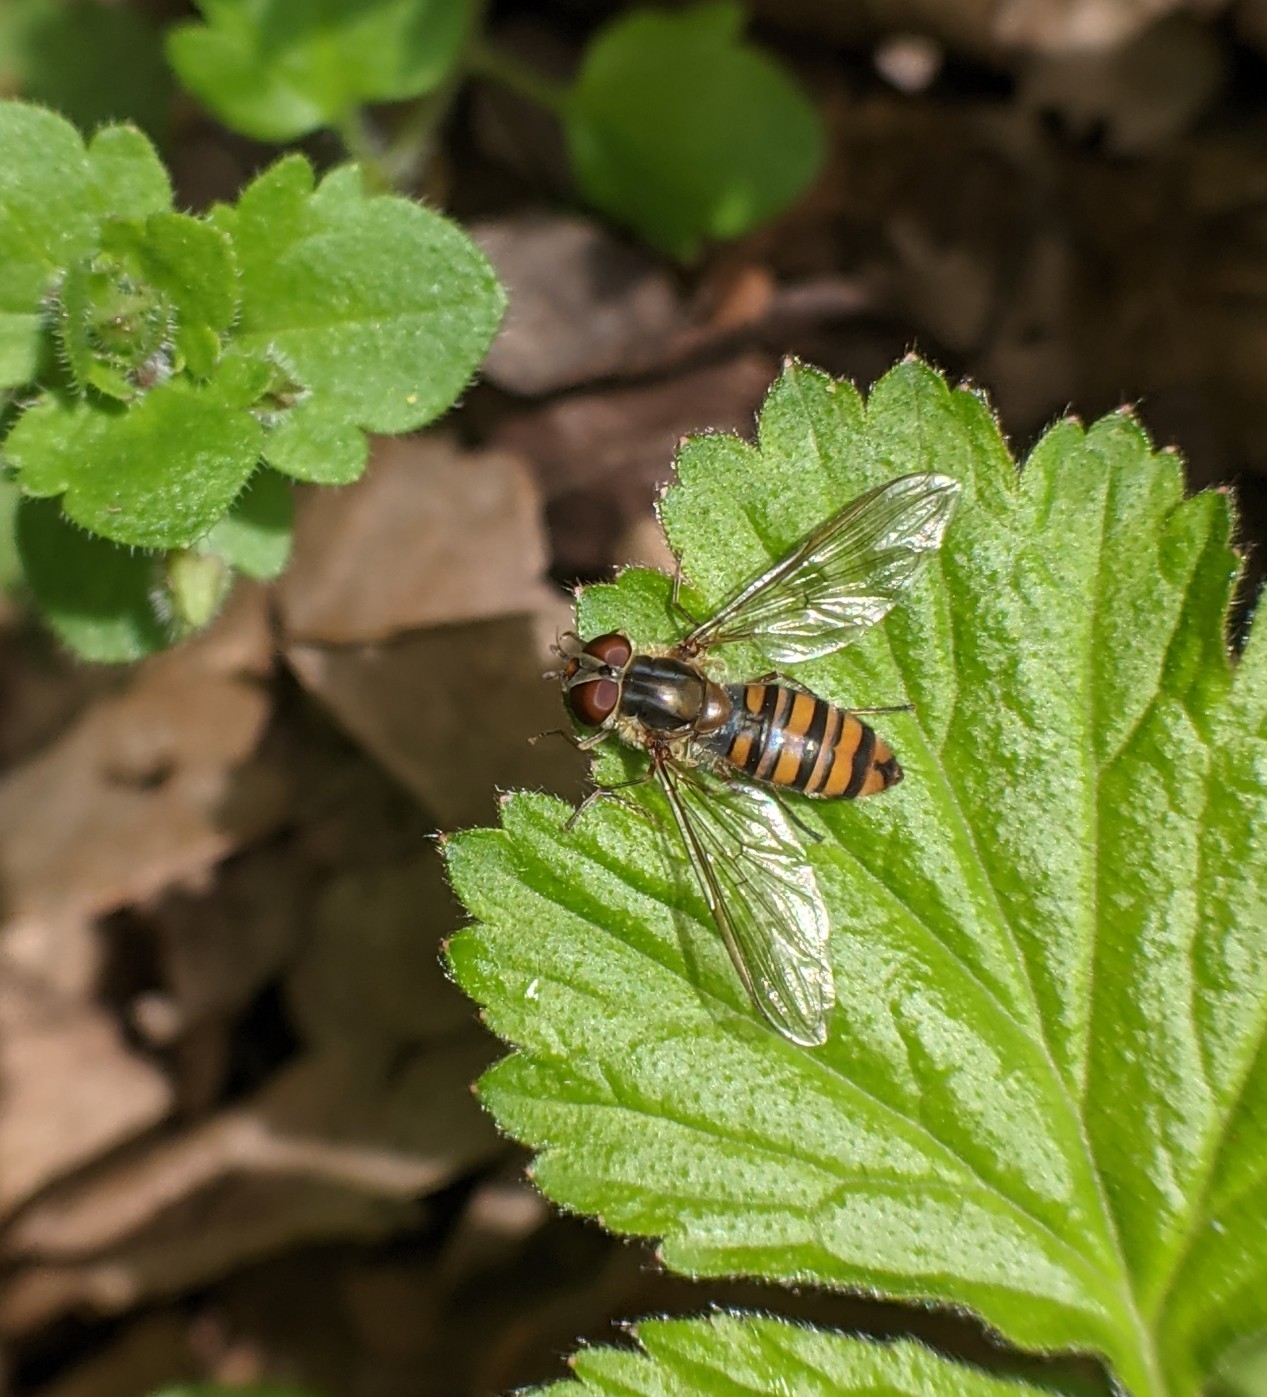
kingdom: Animalia
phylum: Arthropoda
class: Insecta
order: Diptera
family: Syrphidae
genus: Episyrphus
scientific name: Episyrphus balteatus
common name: Marmalade hoverfly
